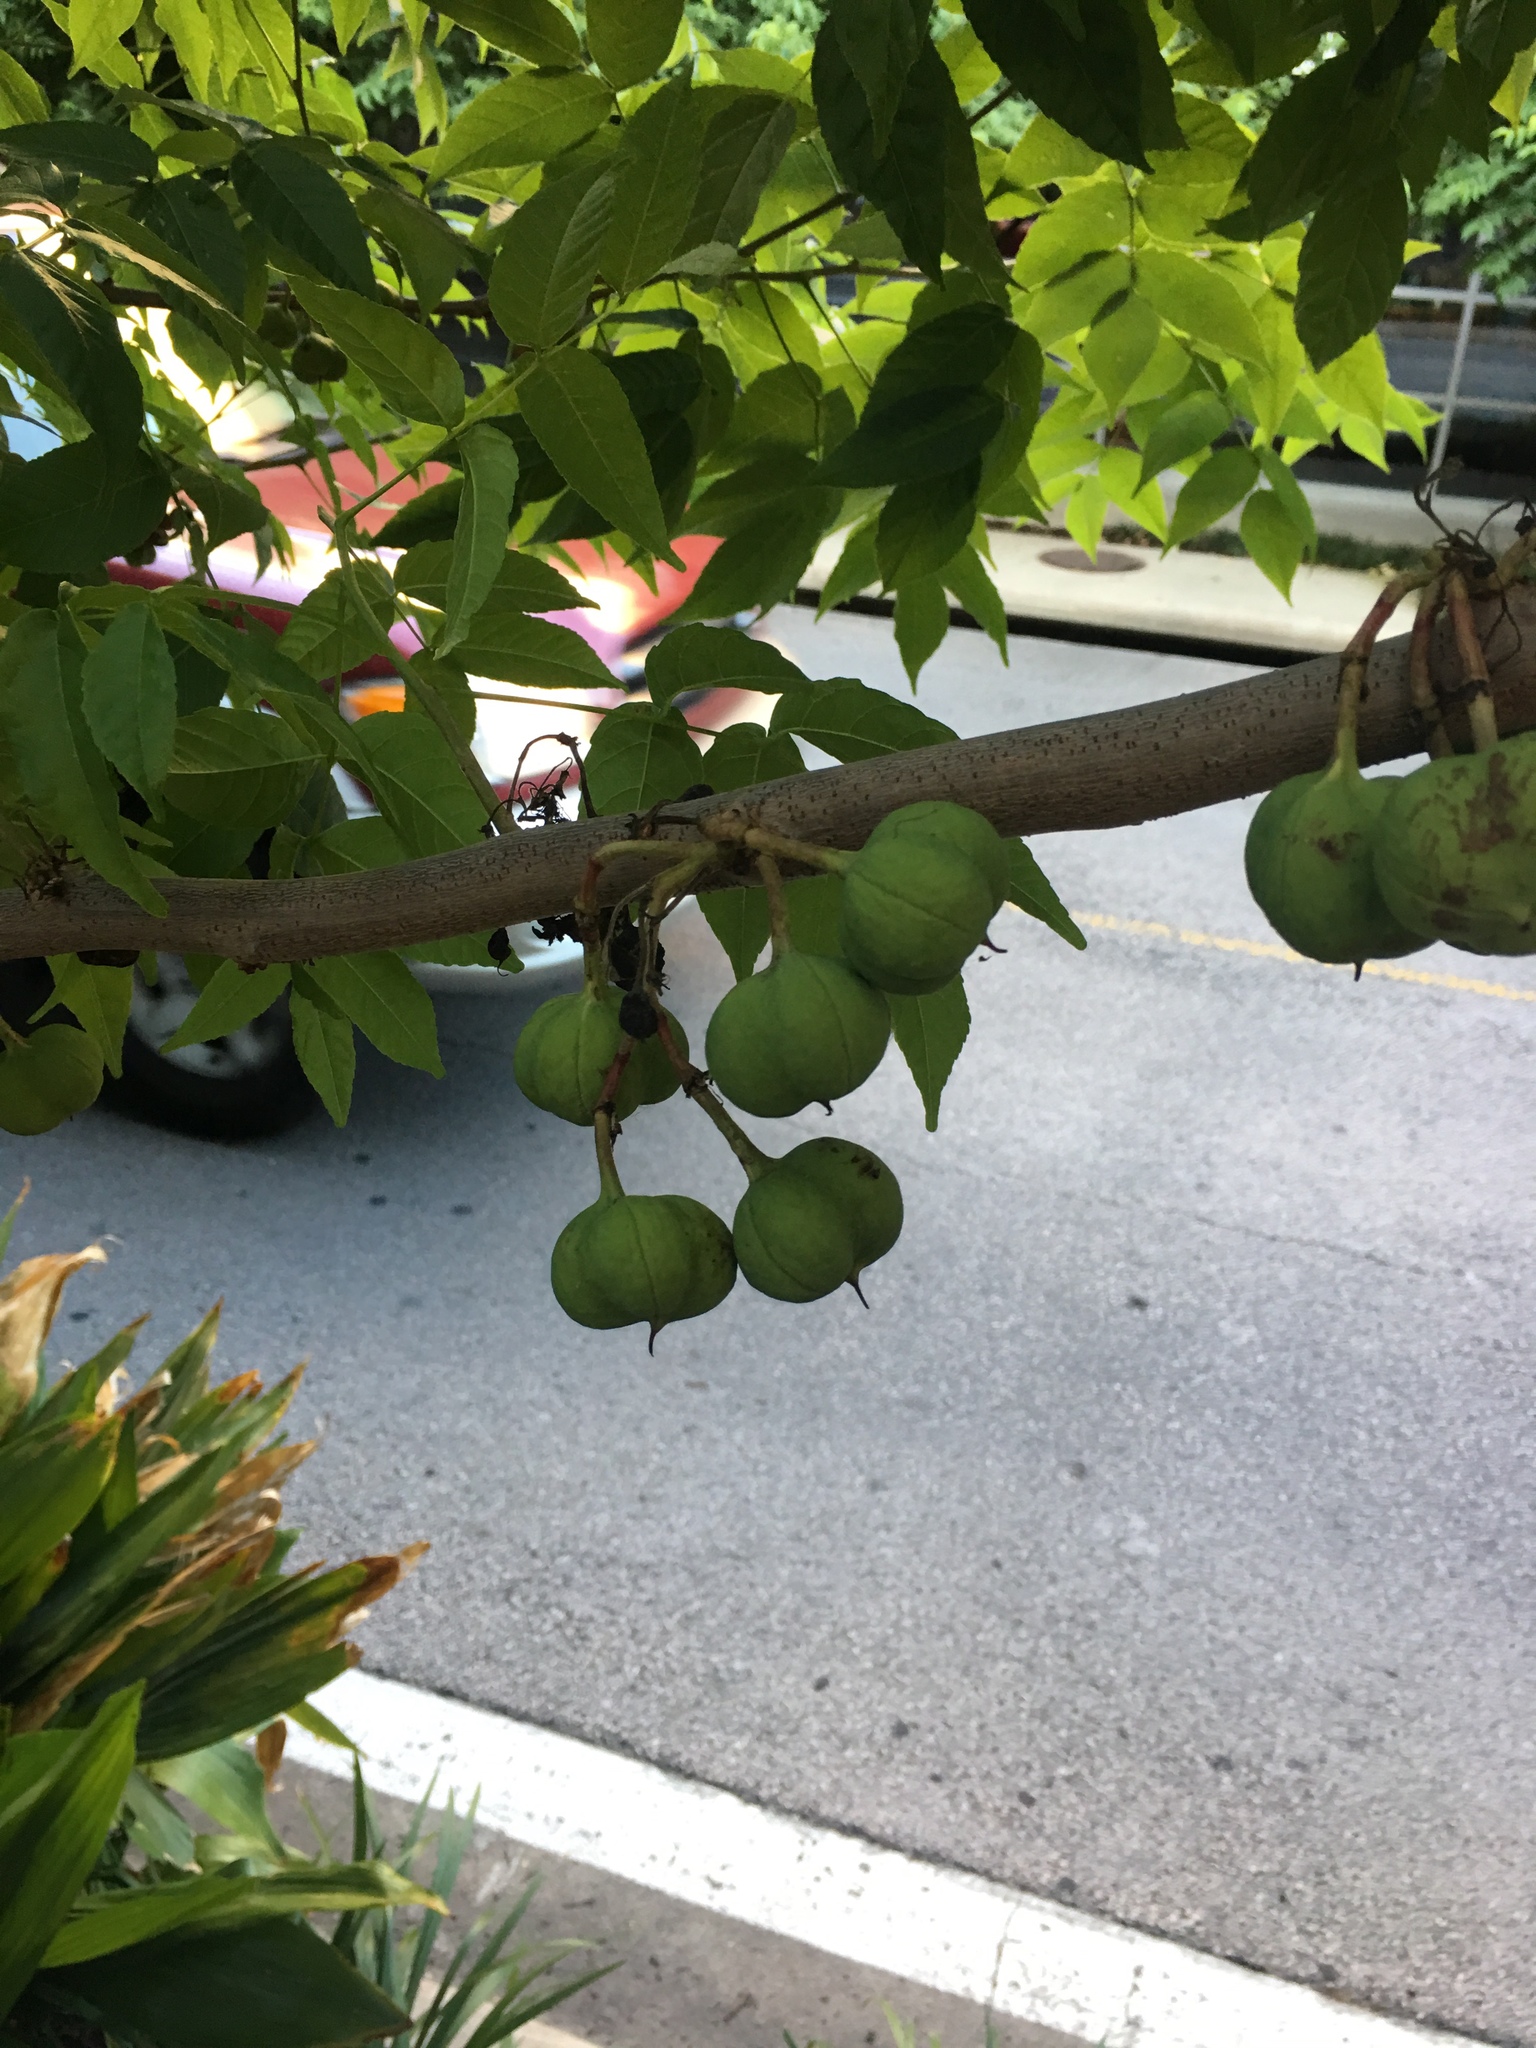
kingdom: Plantae
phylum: Tracheophyta
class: Magnoliopsida
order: Sapindales
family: Sapindaceae
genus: Ungnadia
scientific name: Ungnadia speciosa
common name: Texas-buckeye
